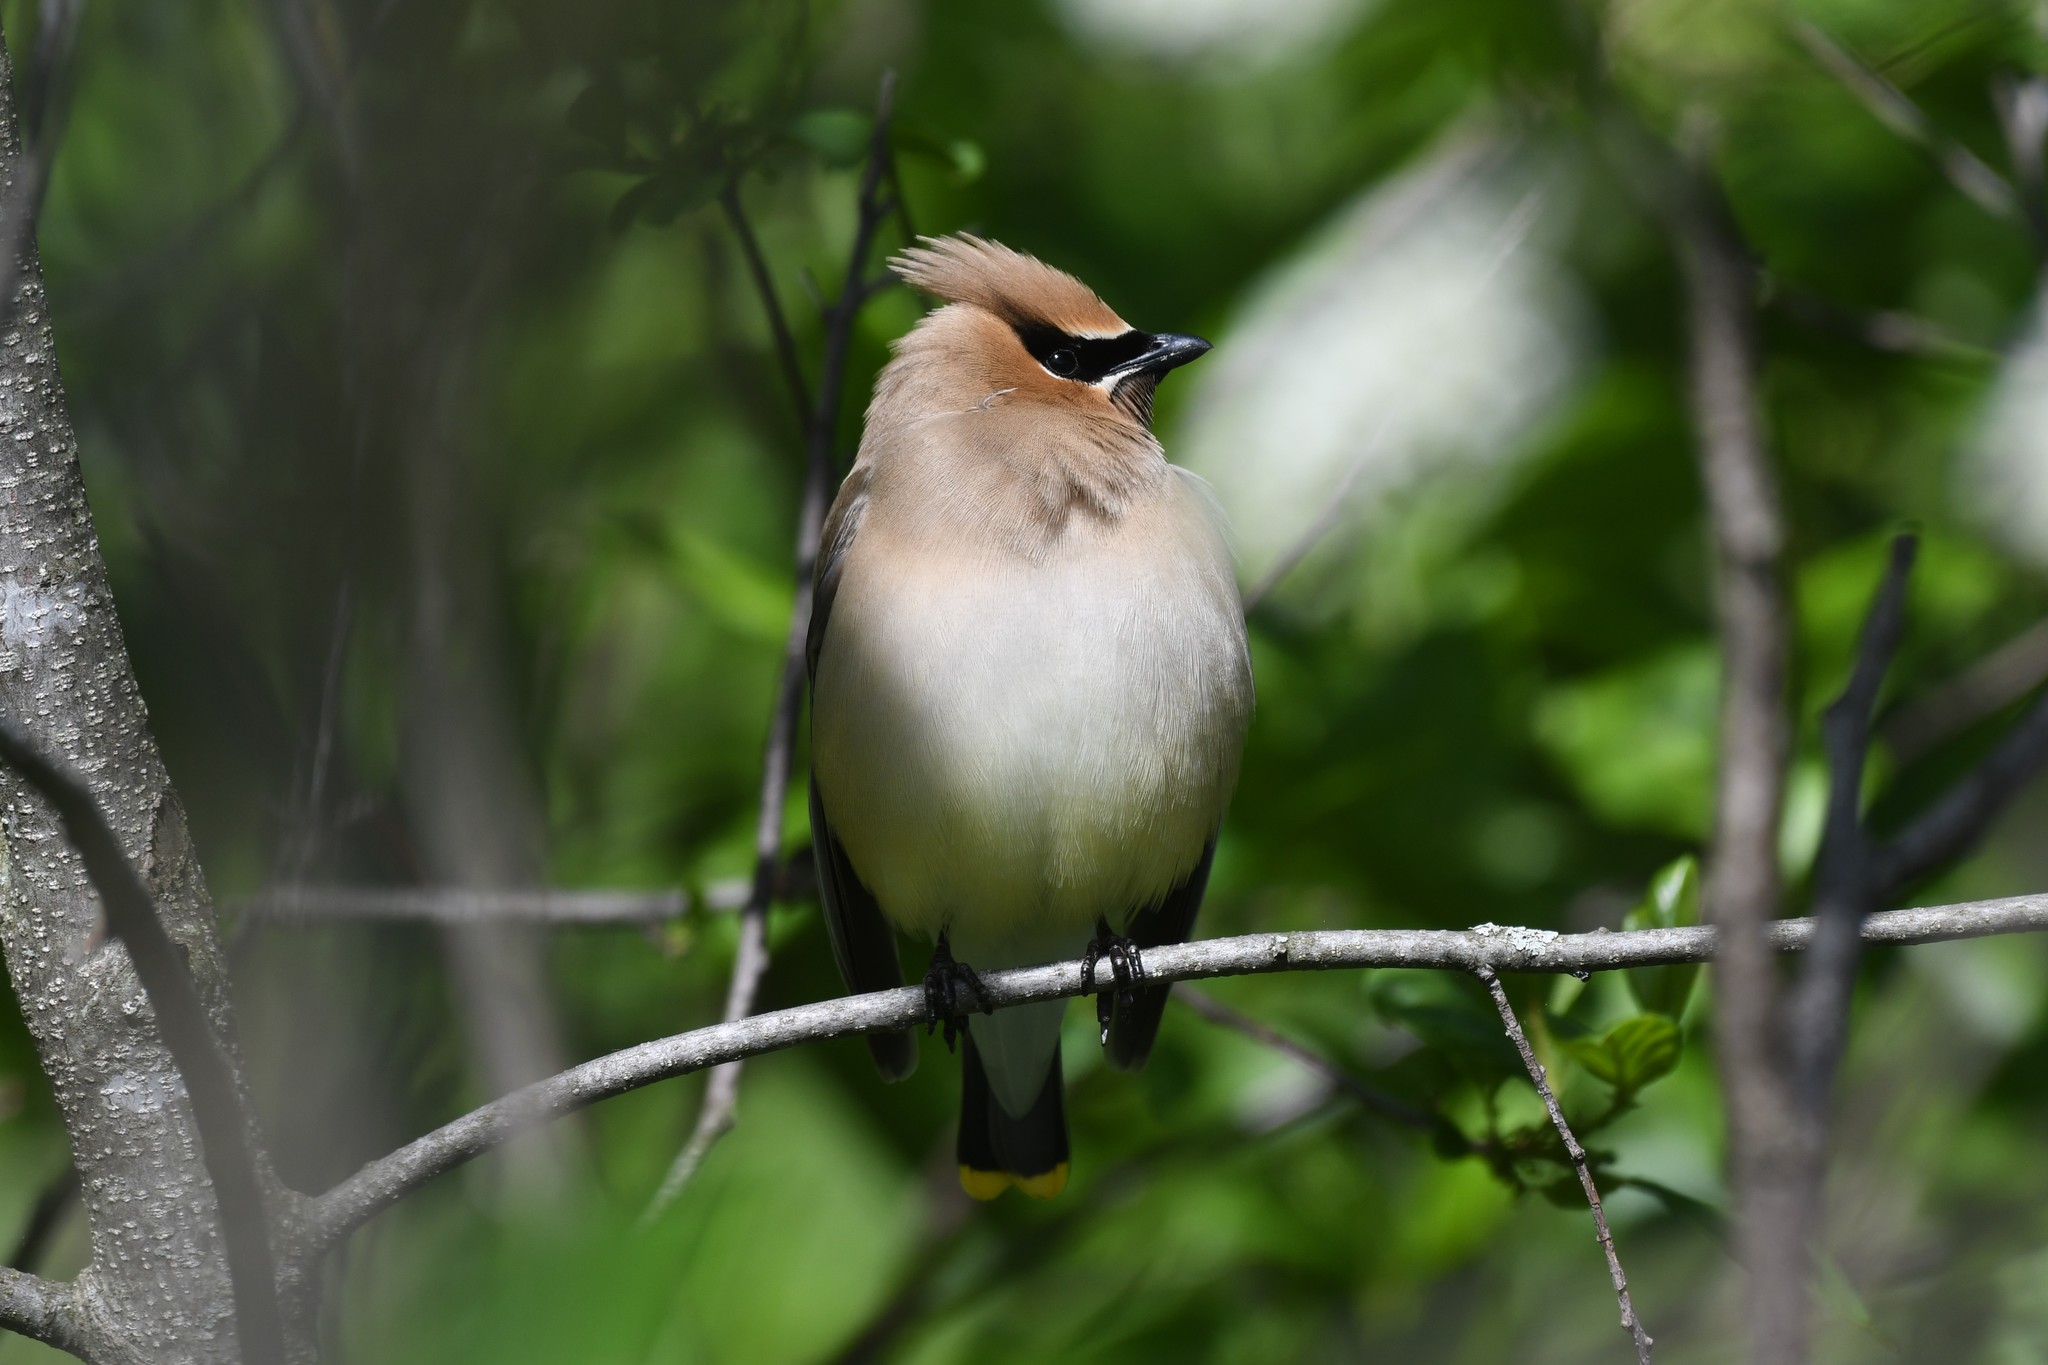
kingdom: Animalia
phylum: Chordata
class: Aves
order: Passeriformes
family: Bombycillidae
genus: Bombycilla
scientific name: Bombycilla cedrorum
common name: Cedar waxwing
